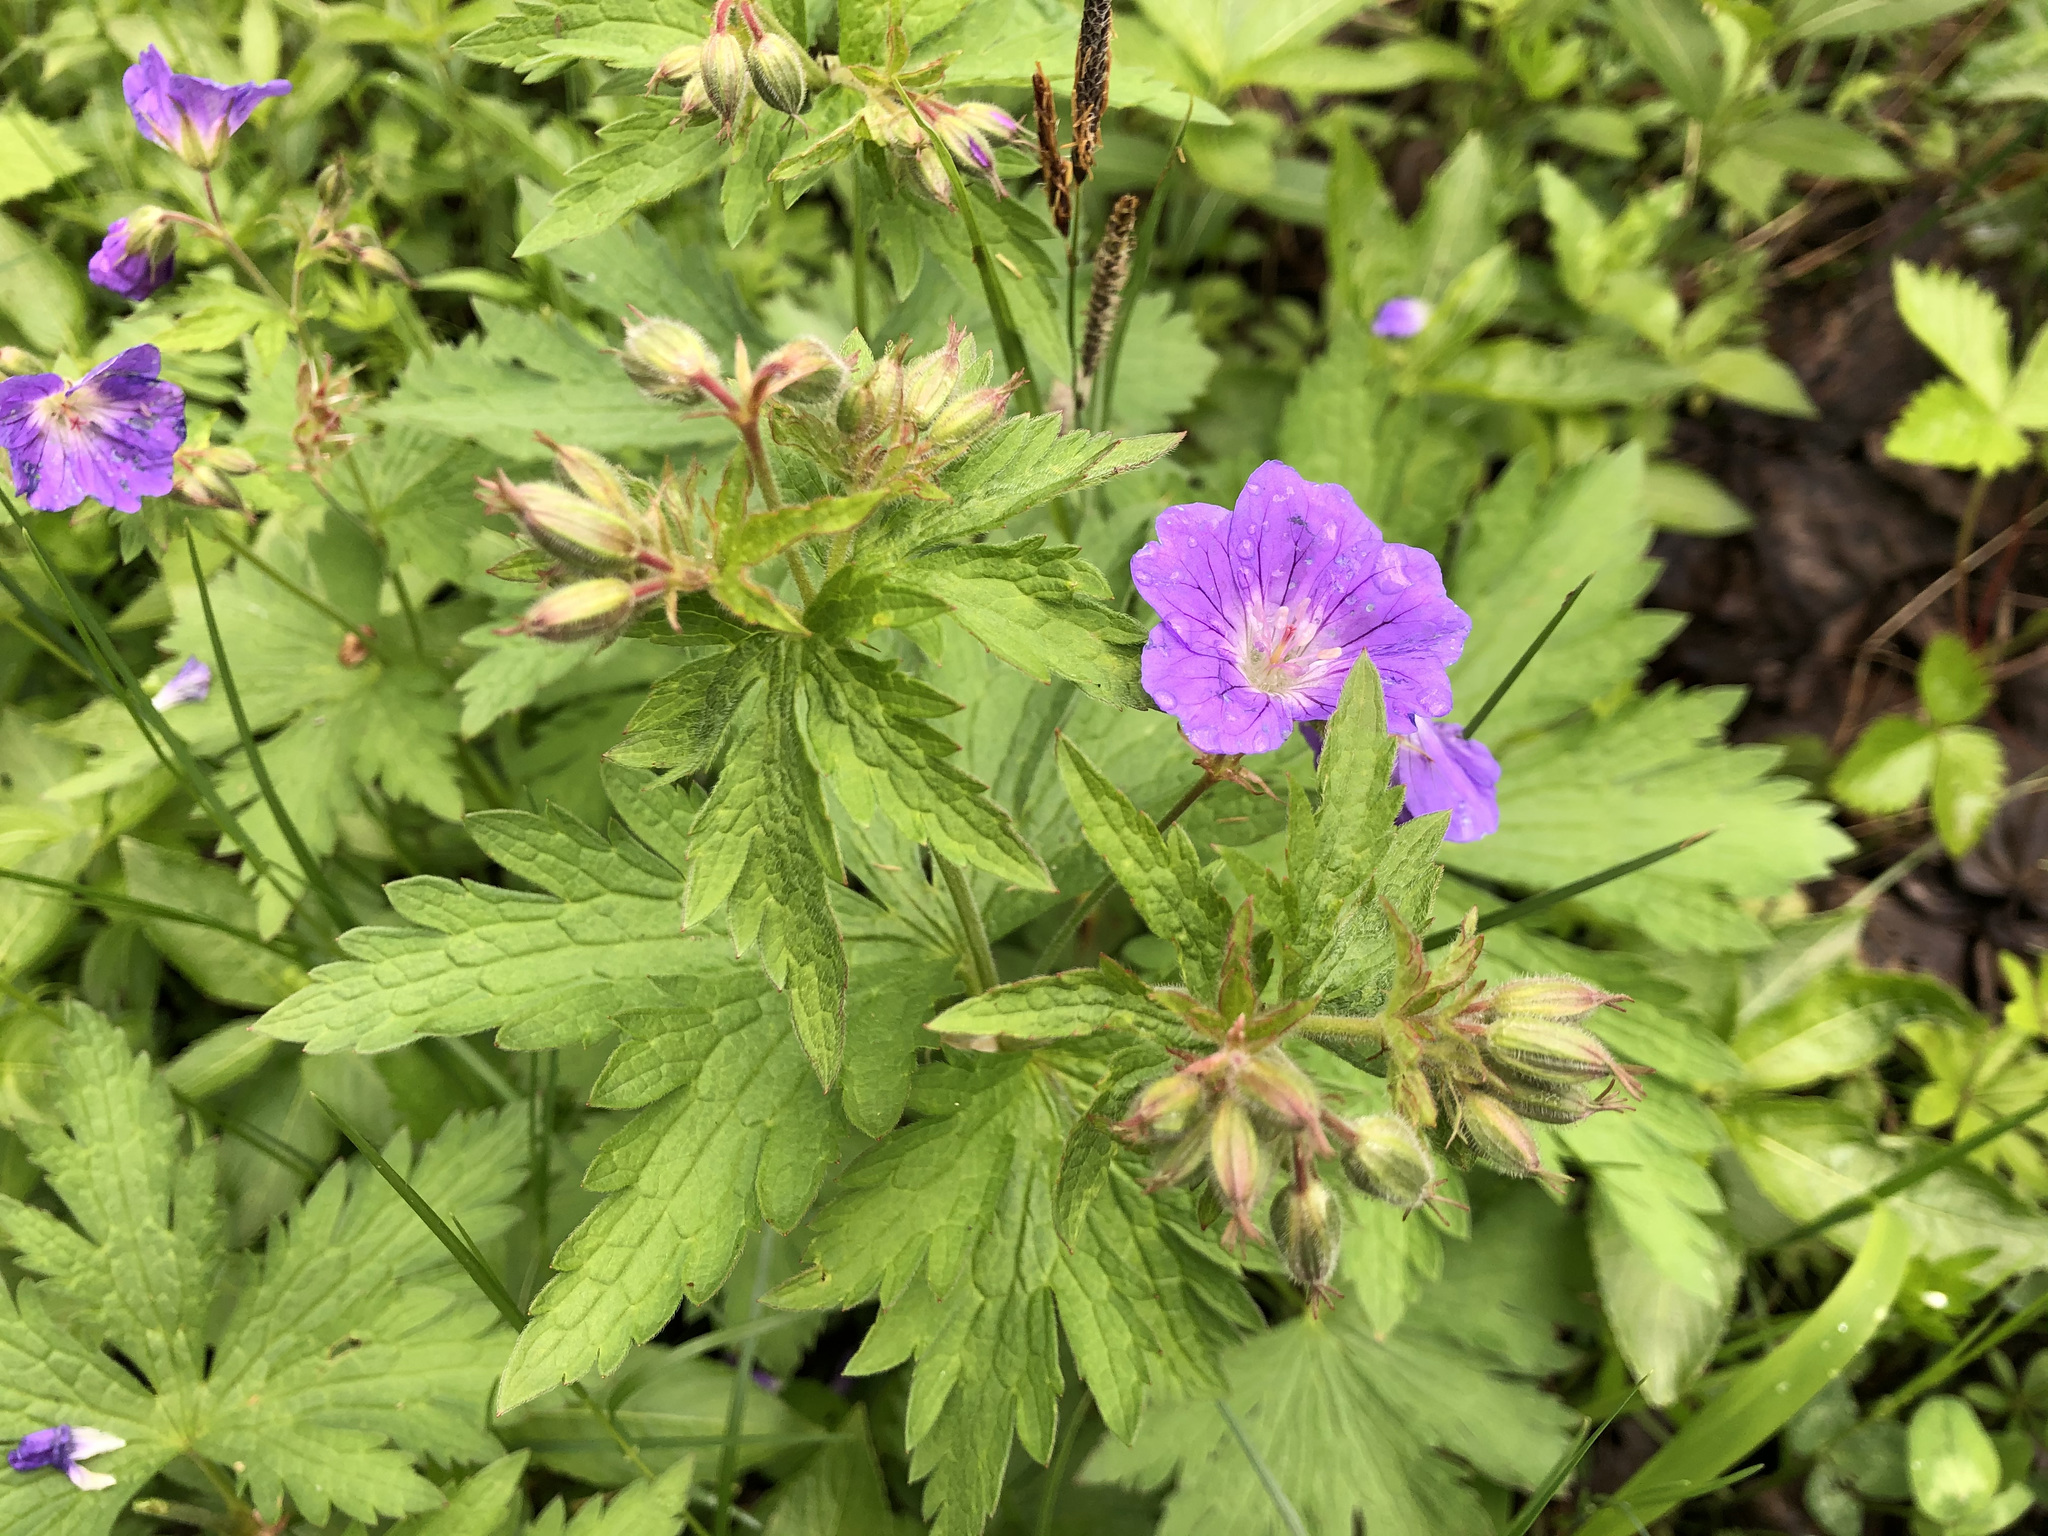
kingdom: Plantae
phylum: Tracheophyta
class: Magnoliopsida
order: Geraniales
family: Geraniaceae
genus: Geranium
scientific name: Geranium sylvaticum
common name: Wood crane's-bill
